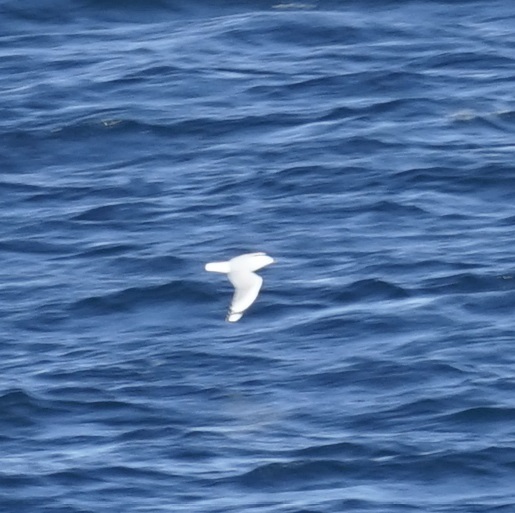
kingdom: Animalia
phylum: Chordata
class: Aves
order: Charadriiformes
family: Laridae
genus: Chroicocephalus
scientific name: Chroicocephalus novaehollandiae
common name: Silver gull
